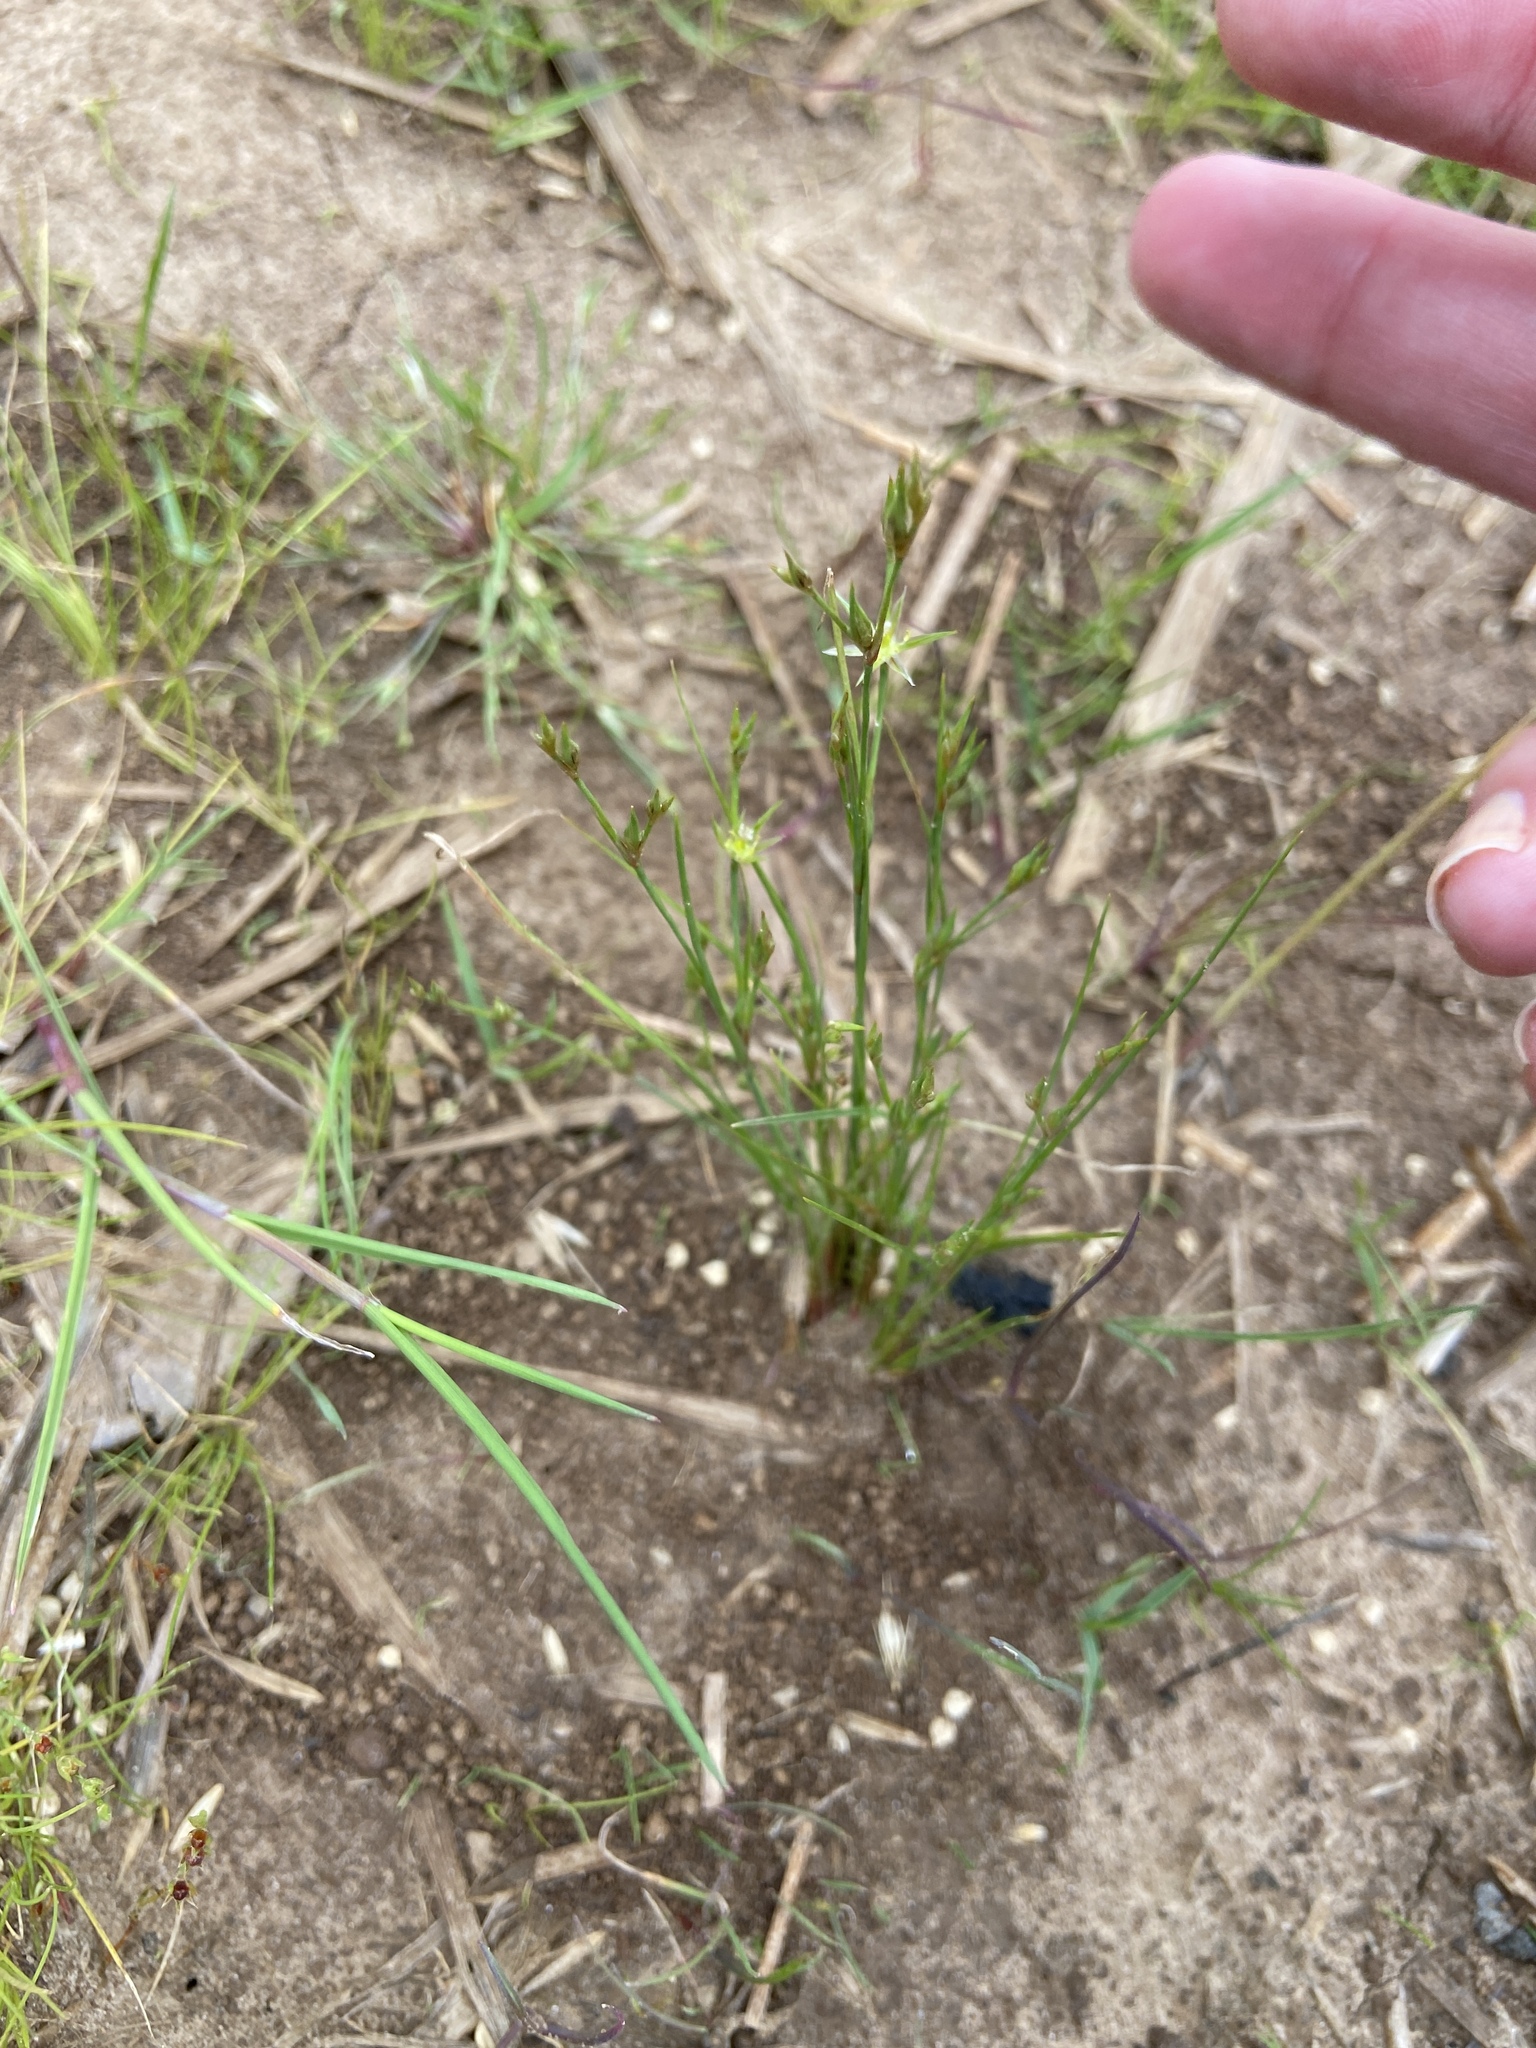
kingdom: Plantae
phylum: Tracheophyta
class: Liliopsida
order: Poales
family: Juncaceae
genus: Juncus
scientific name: Juncus bufonius
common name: Toad rush
